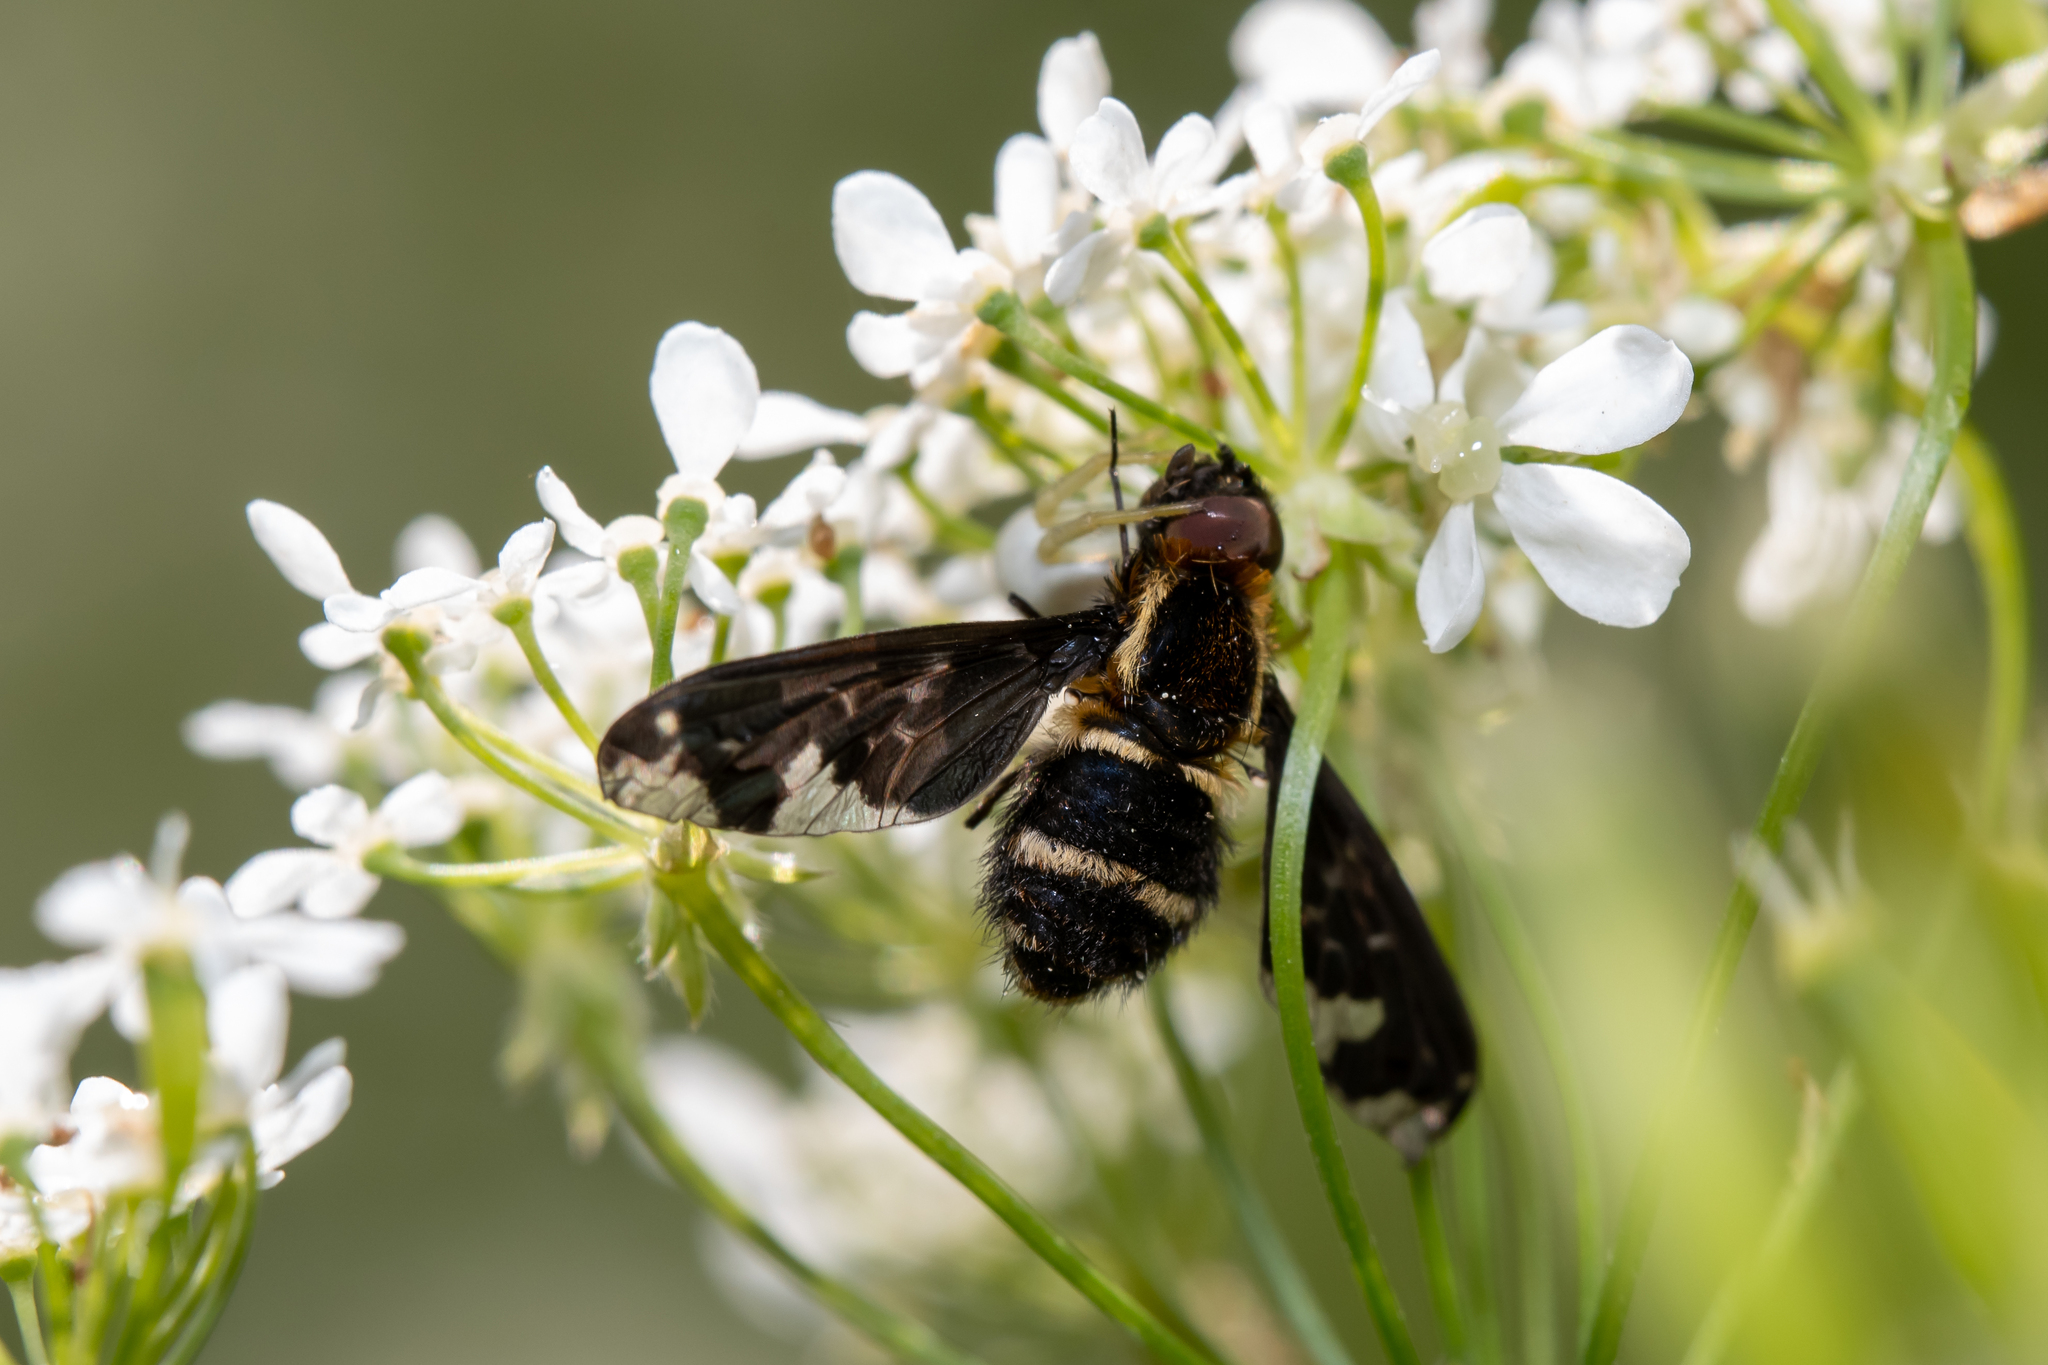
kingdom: Animalia
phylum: Arthropoda
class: Insecta
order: Diptera
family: Bombyliidae
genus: Hemipenthes
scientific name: Hemipenthes maura
